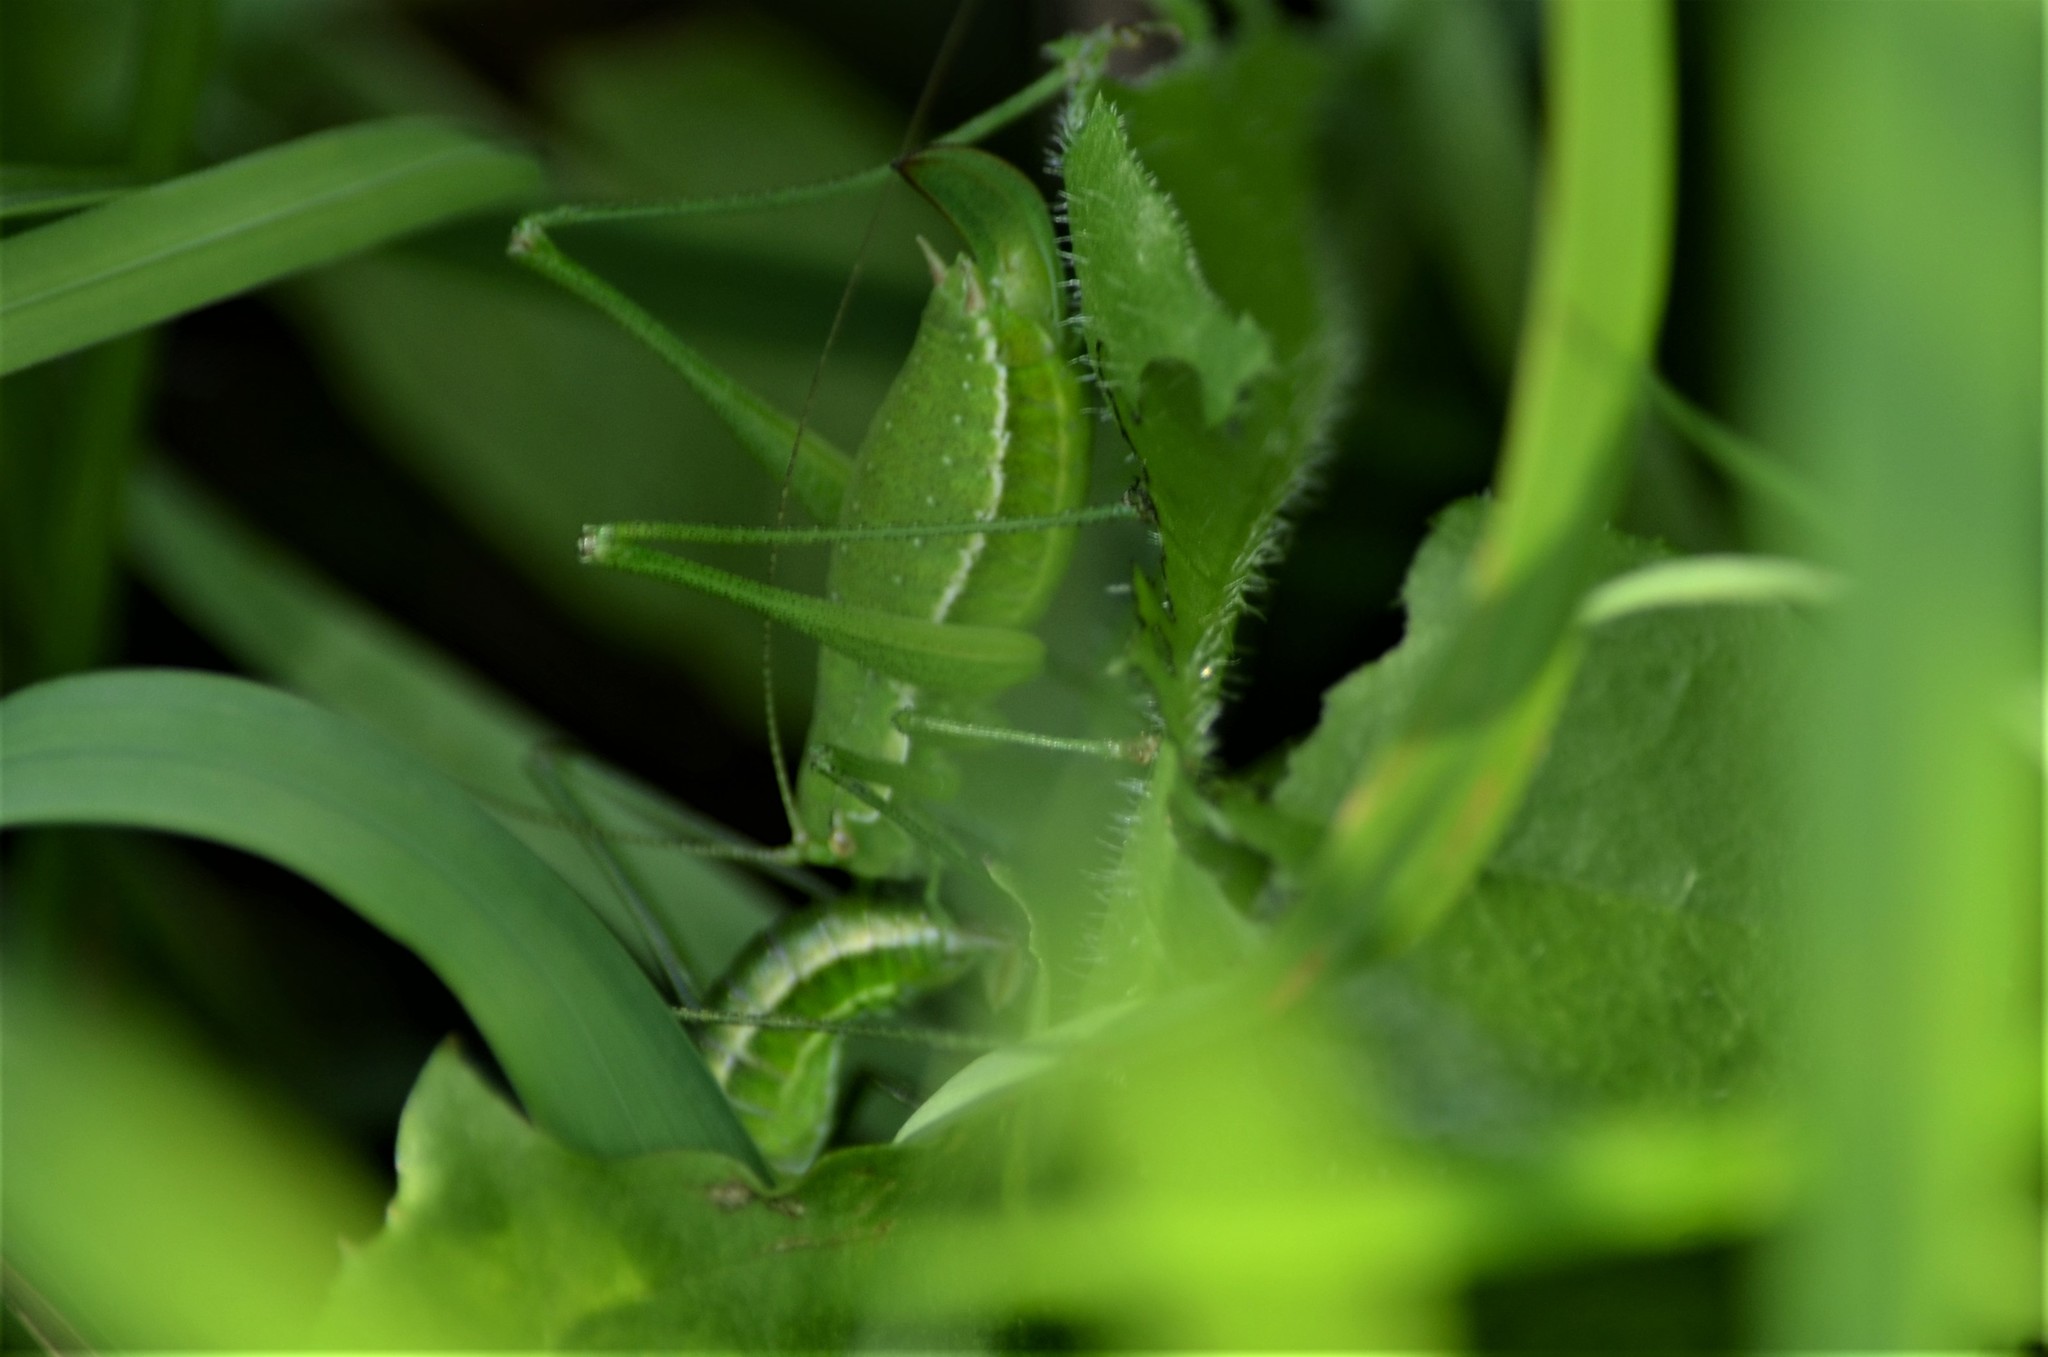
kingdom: Animalia
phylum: Arthropoda
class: Insecta
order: Orthoptera
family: Tettigoniidae
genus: Leptophyes
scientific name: Leptophyes boscii
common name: Balkan speckled bush-cricket
